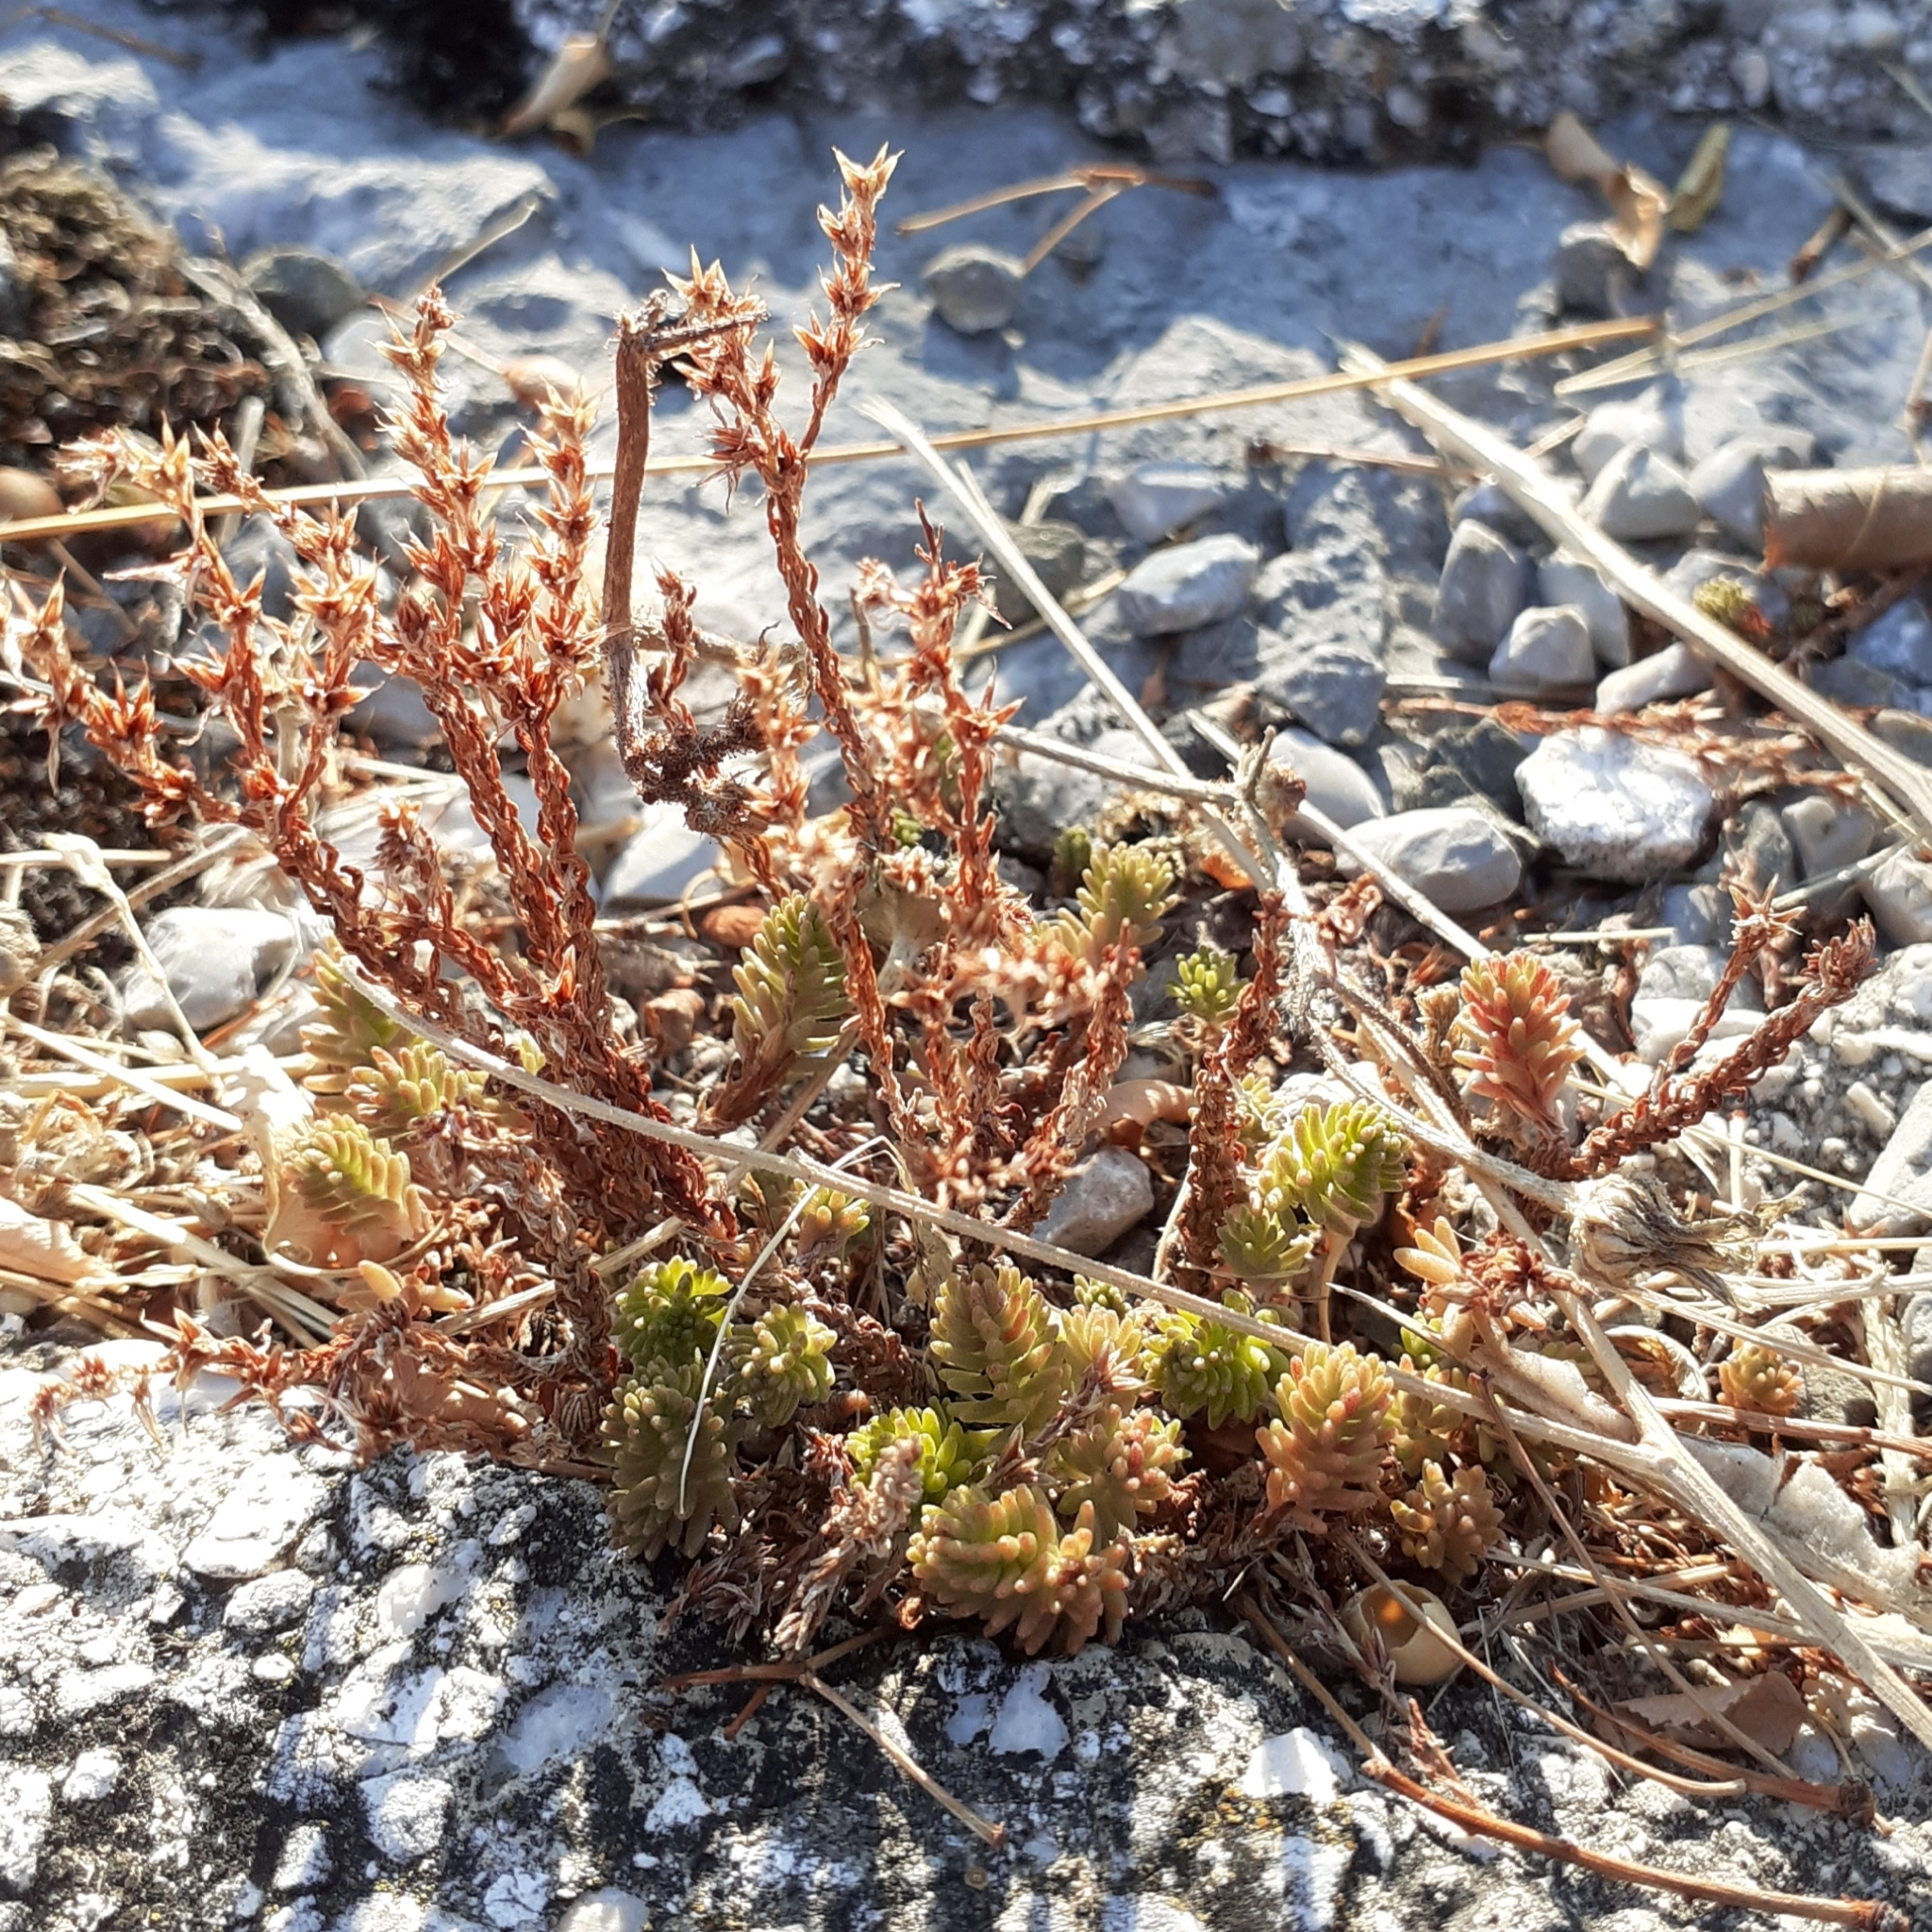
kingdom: Plantae
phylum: Tracheophyta
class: Magnoliopsida
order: Saxifragales
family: Crassulaceae
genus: Sedum
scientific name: Sedum sexangulare
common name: Tasteless stonecrop
